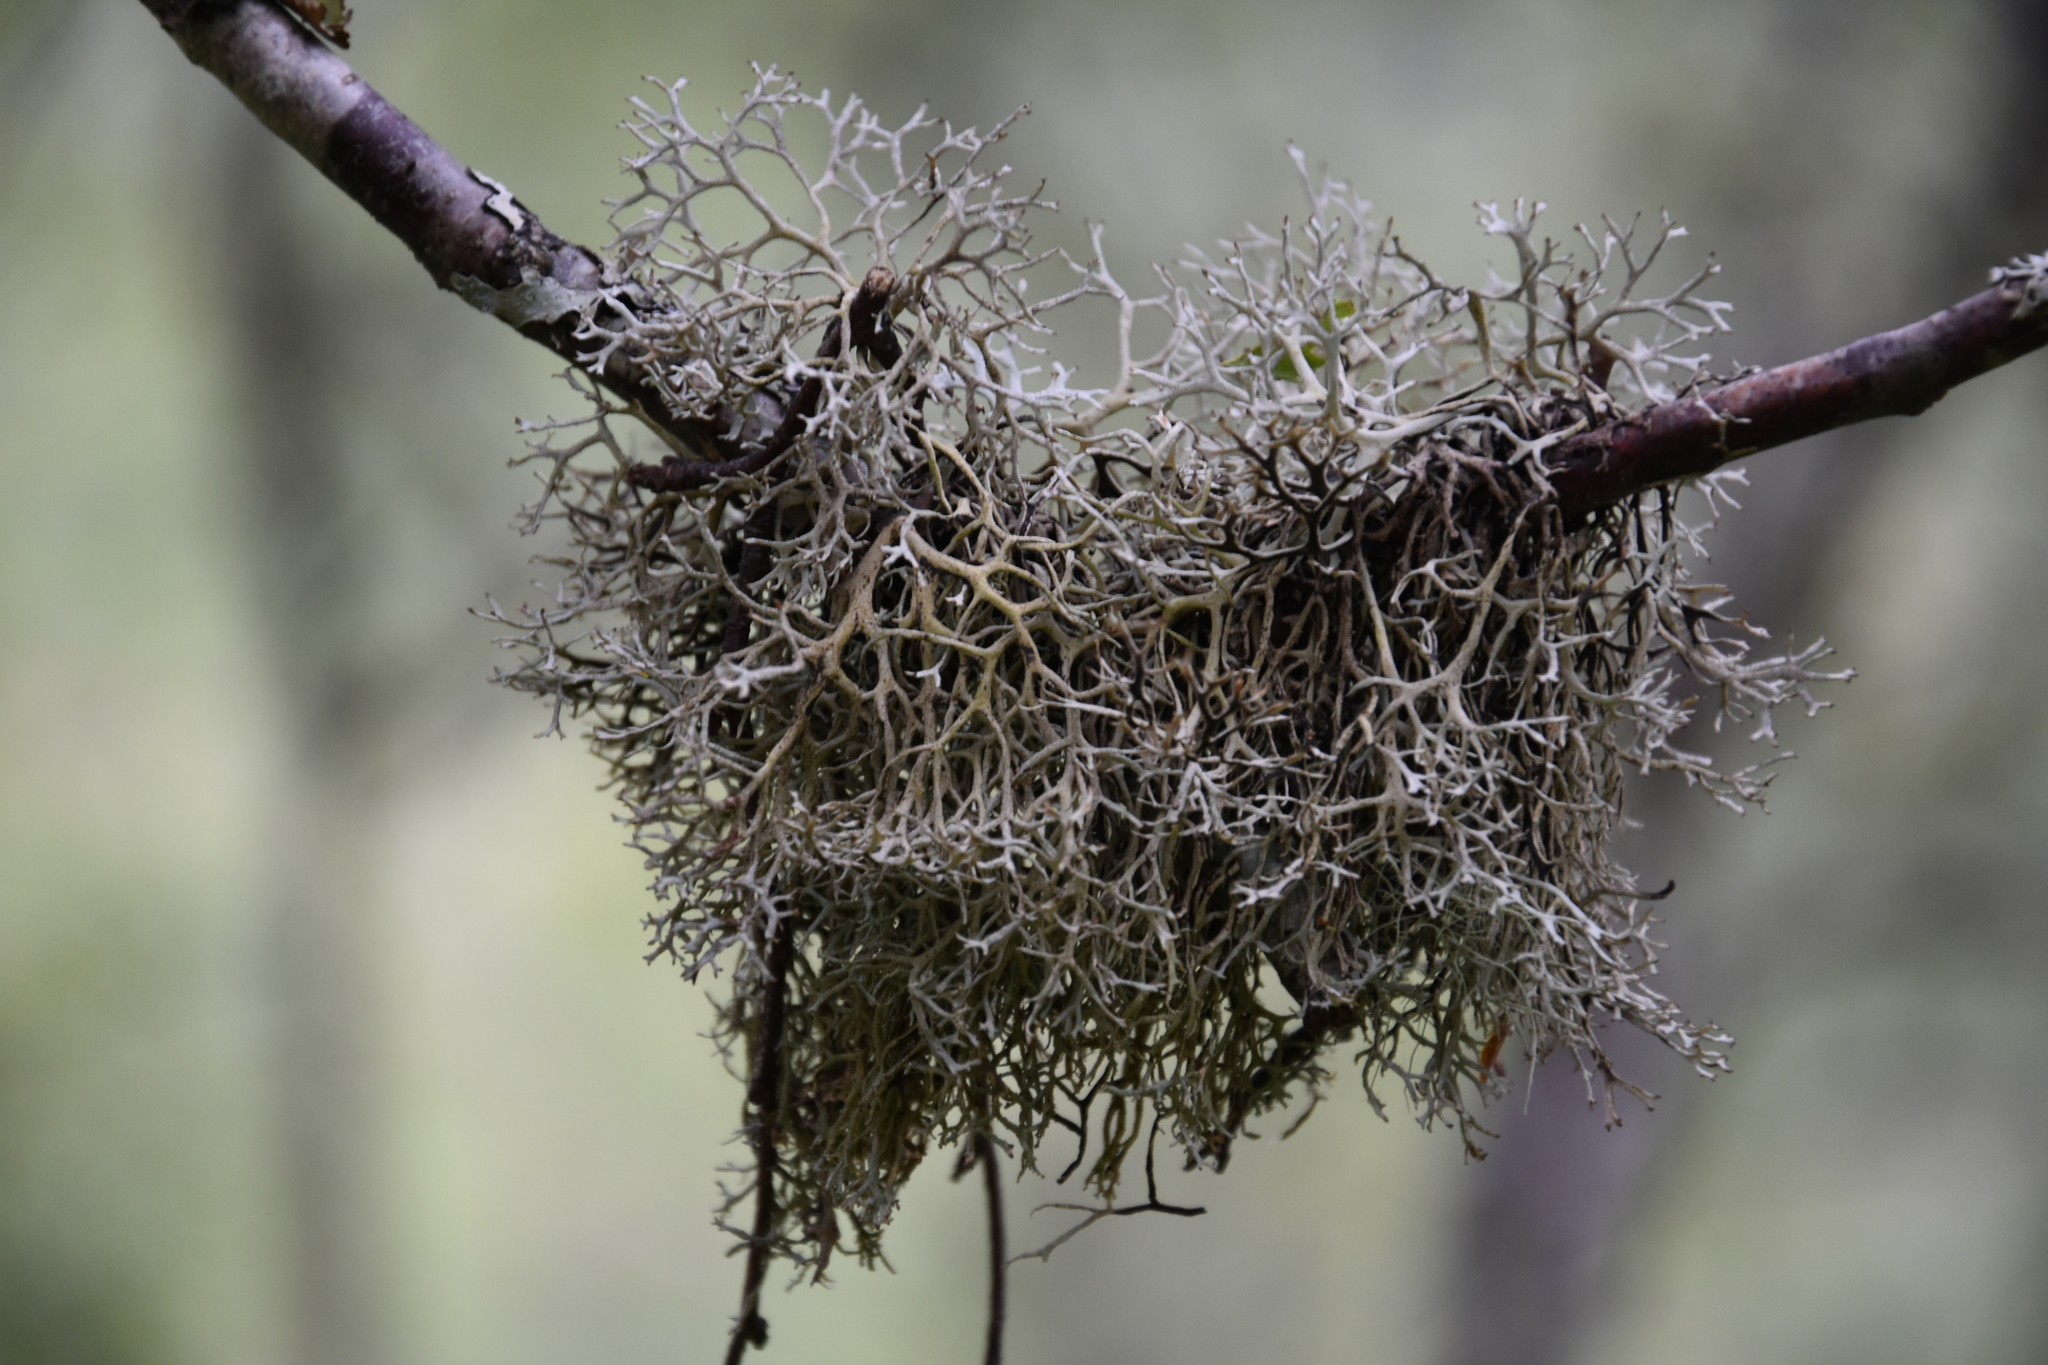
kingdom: Fungi
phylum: Ascomycota
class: Lecanoromycetes
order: Lecanorales
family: Parmeliaceae
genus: Pseudevernia
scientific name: Pseudevernia furfuracea
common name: Tree moss
